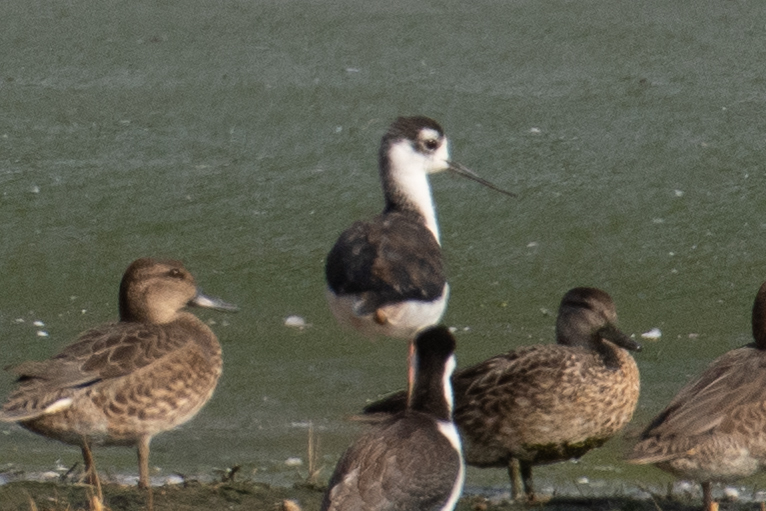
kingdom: Animalia
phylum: Chordata
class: Aves
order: Charadriiformes
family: Recurvirostridae
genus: Himantopus
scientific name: Himantopus mexicanus
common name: Black-necked stilt
